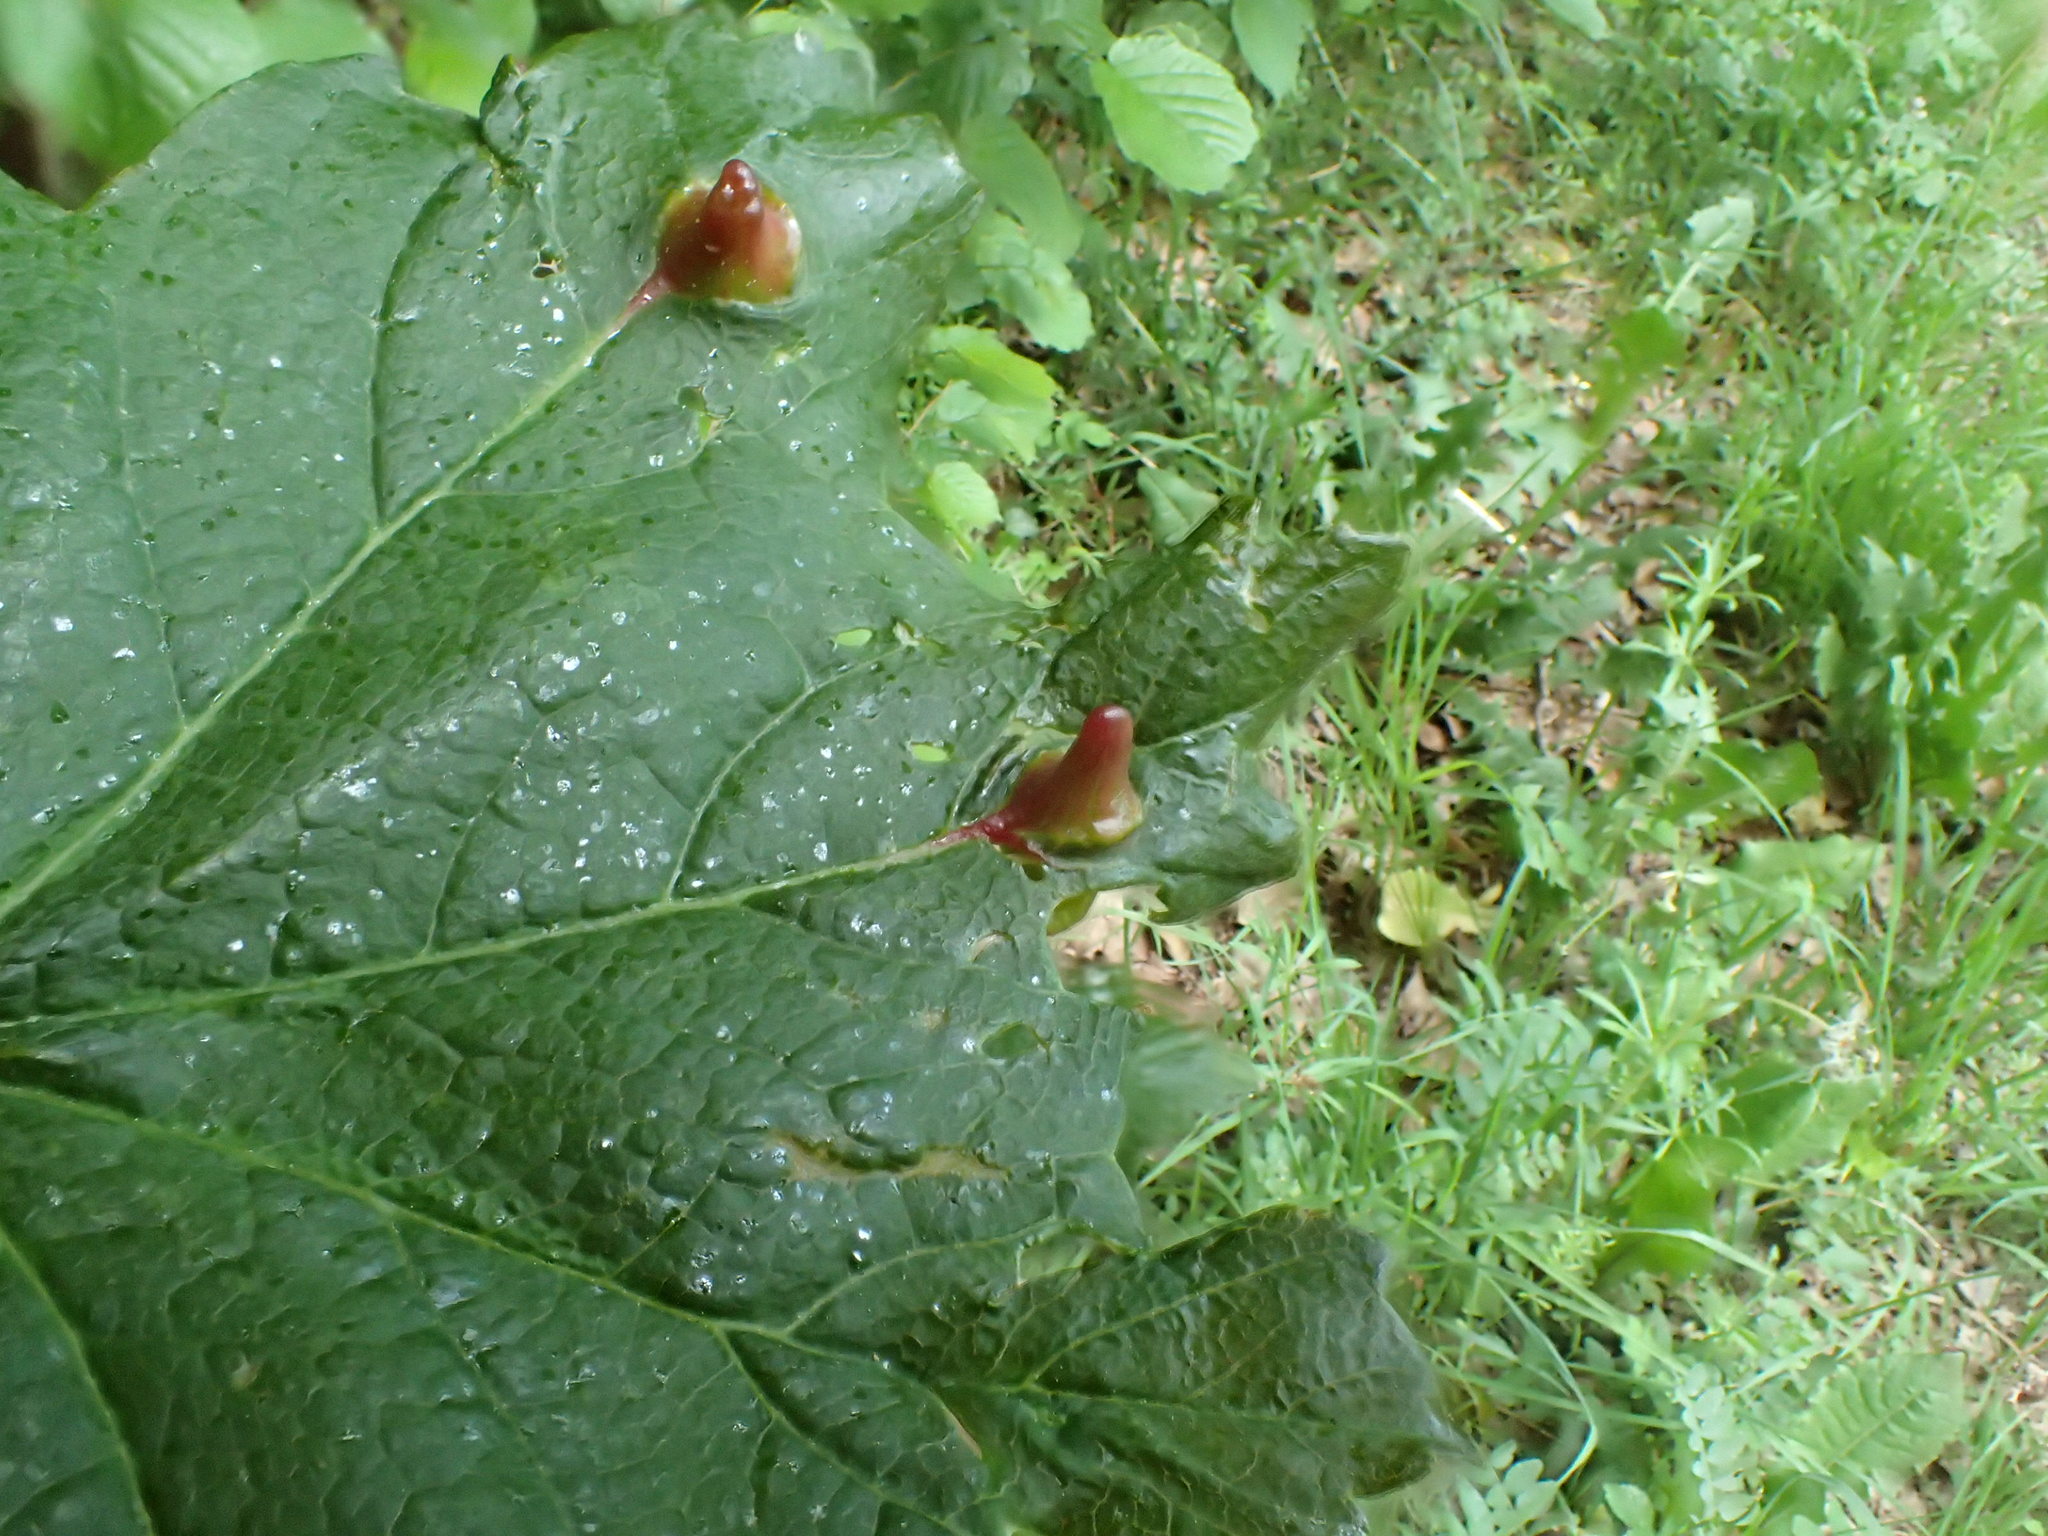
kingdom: Animalia
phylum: Arthropoda
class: Insecta
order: Hymenoptera
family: Cynipidae
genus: Pediaspis
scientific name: Pediaspis aceris
